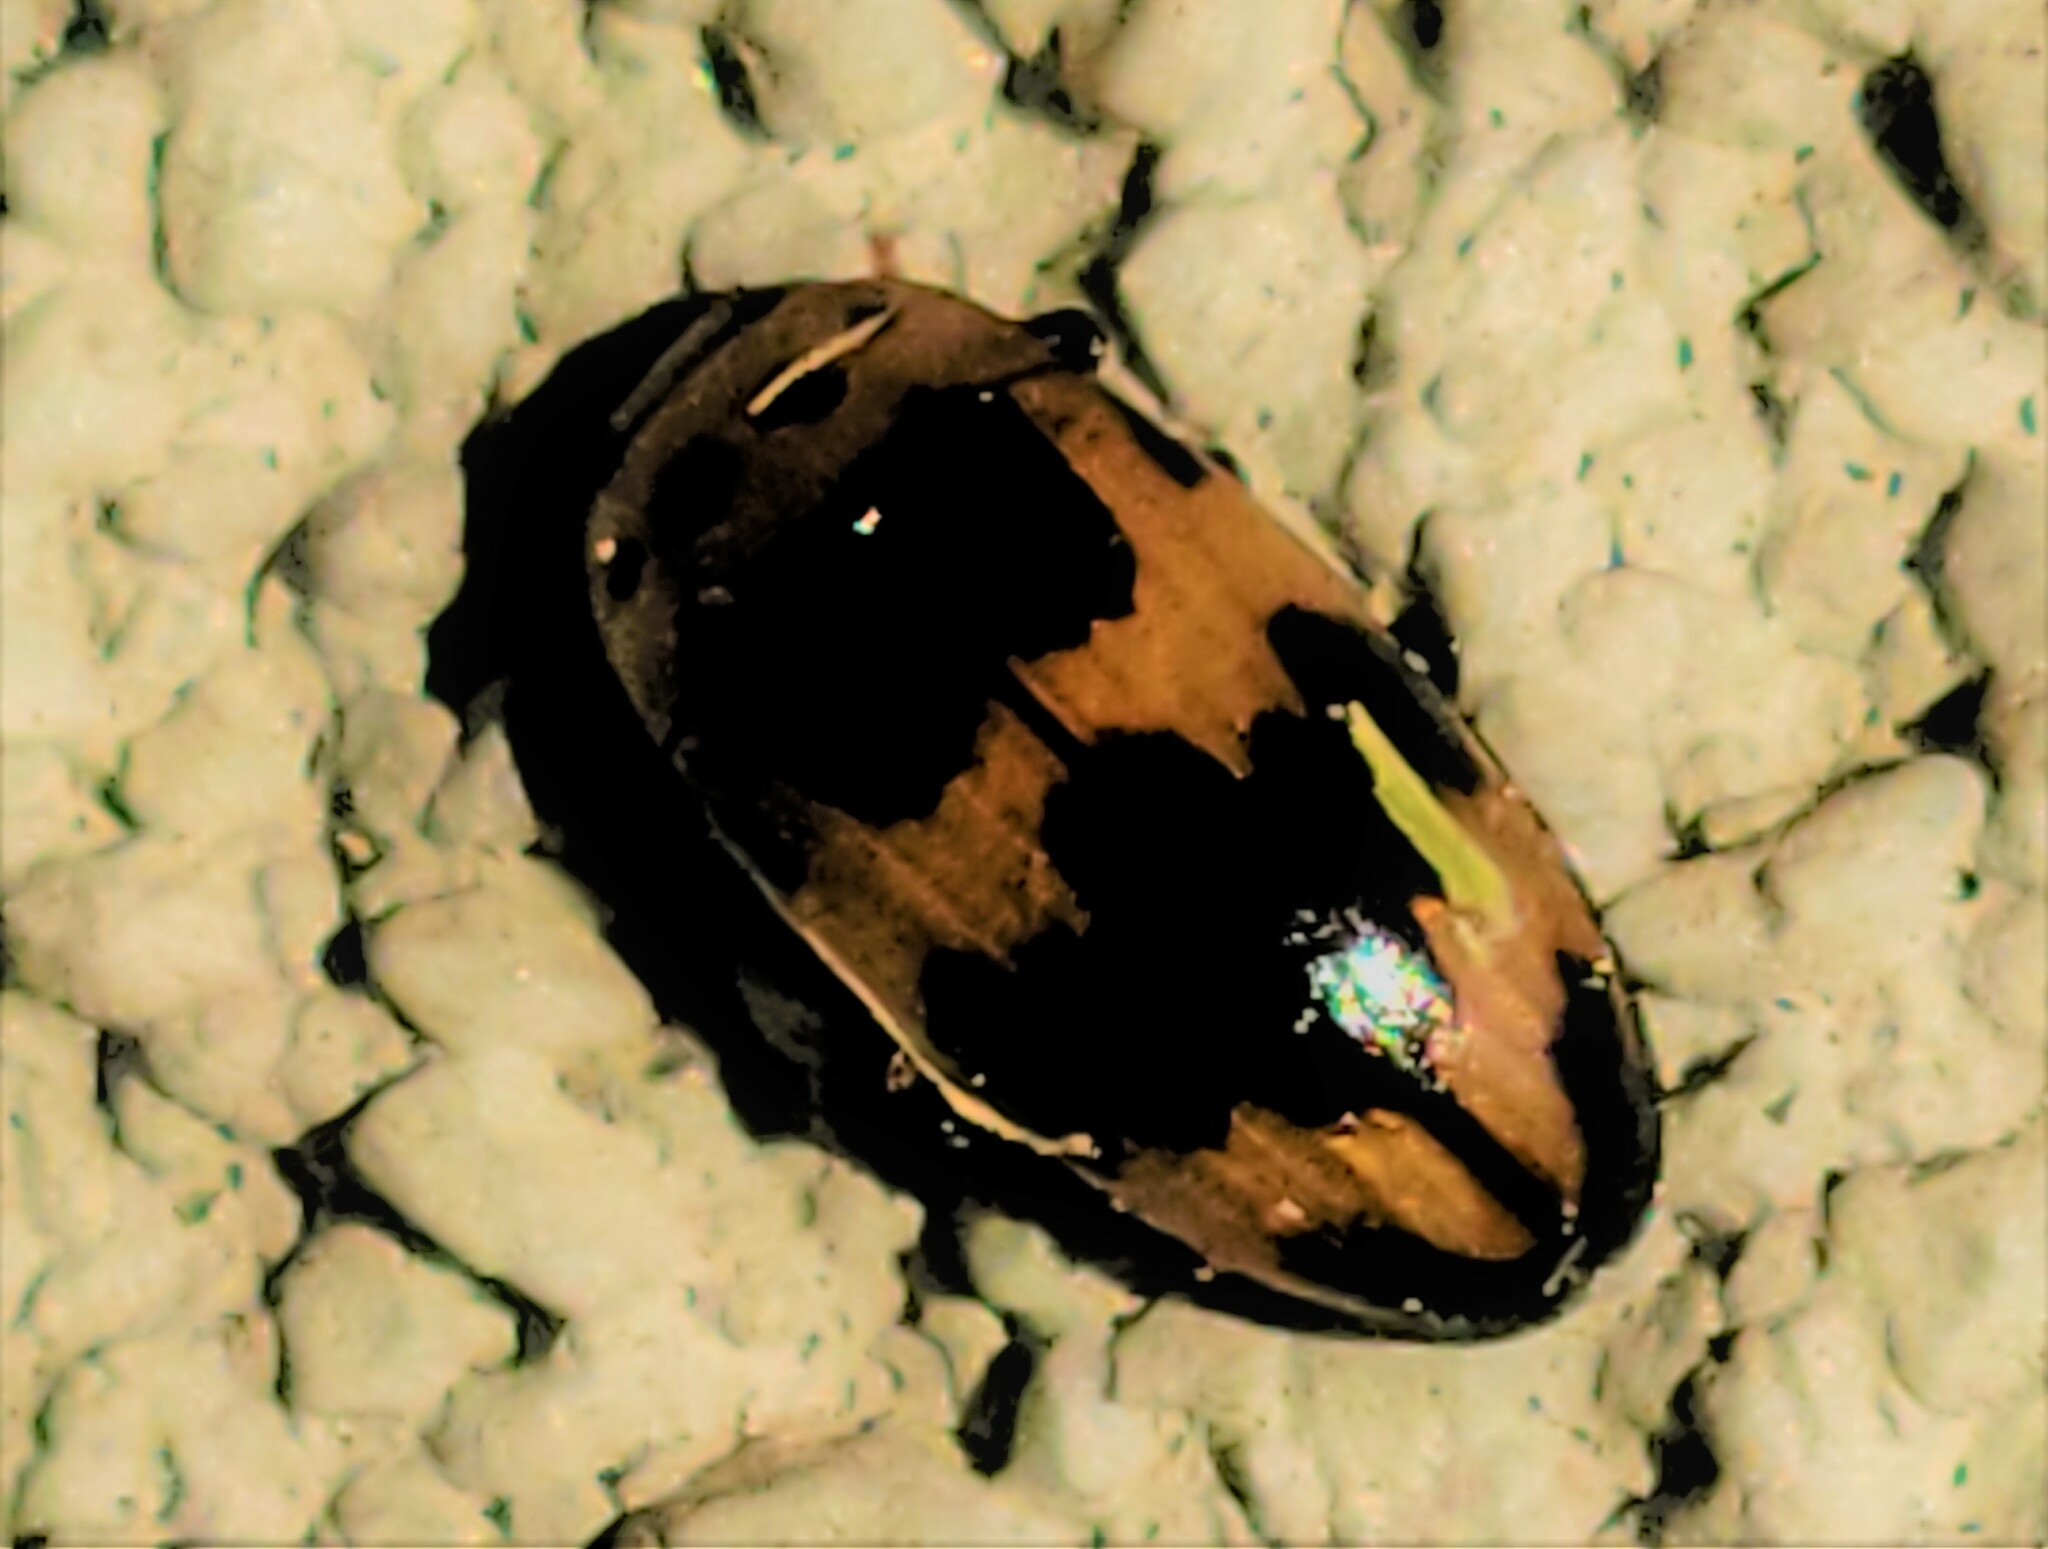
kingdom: Animalia
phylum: Arthropoda
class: Insecta
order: Coleoptera
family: Erotylidae
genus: Ischyrus
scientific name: Ischyrus quadripunctatus
